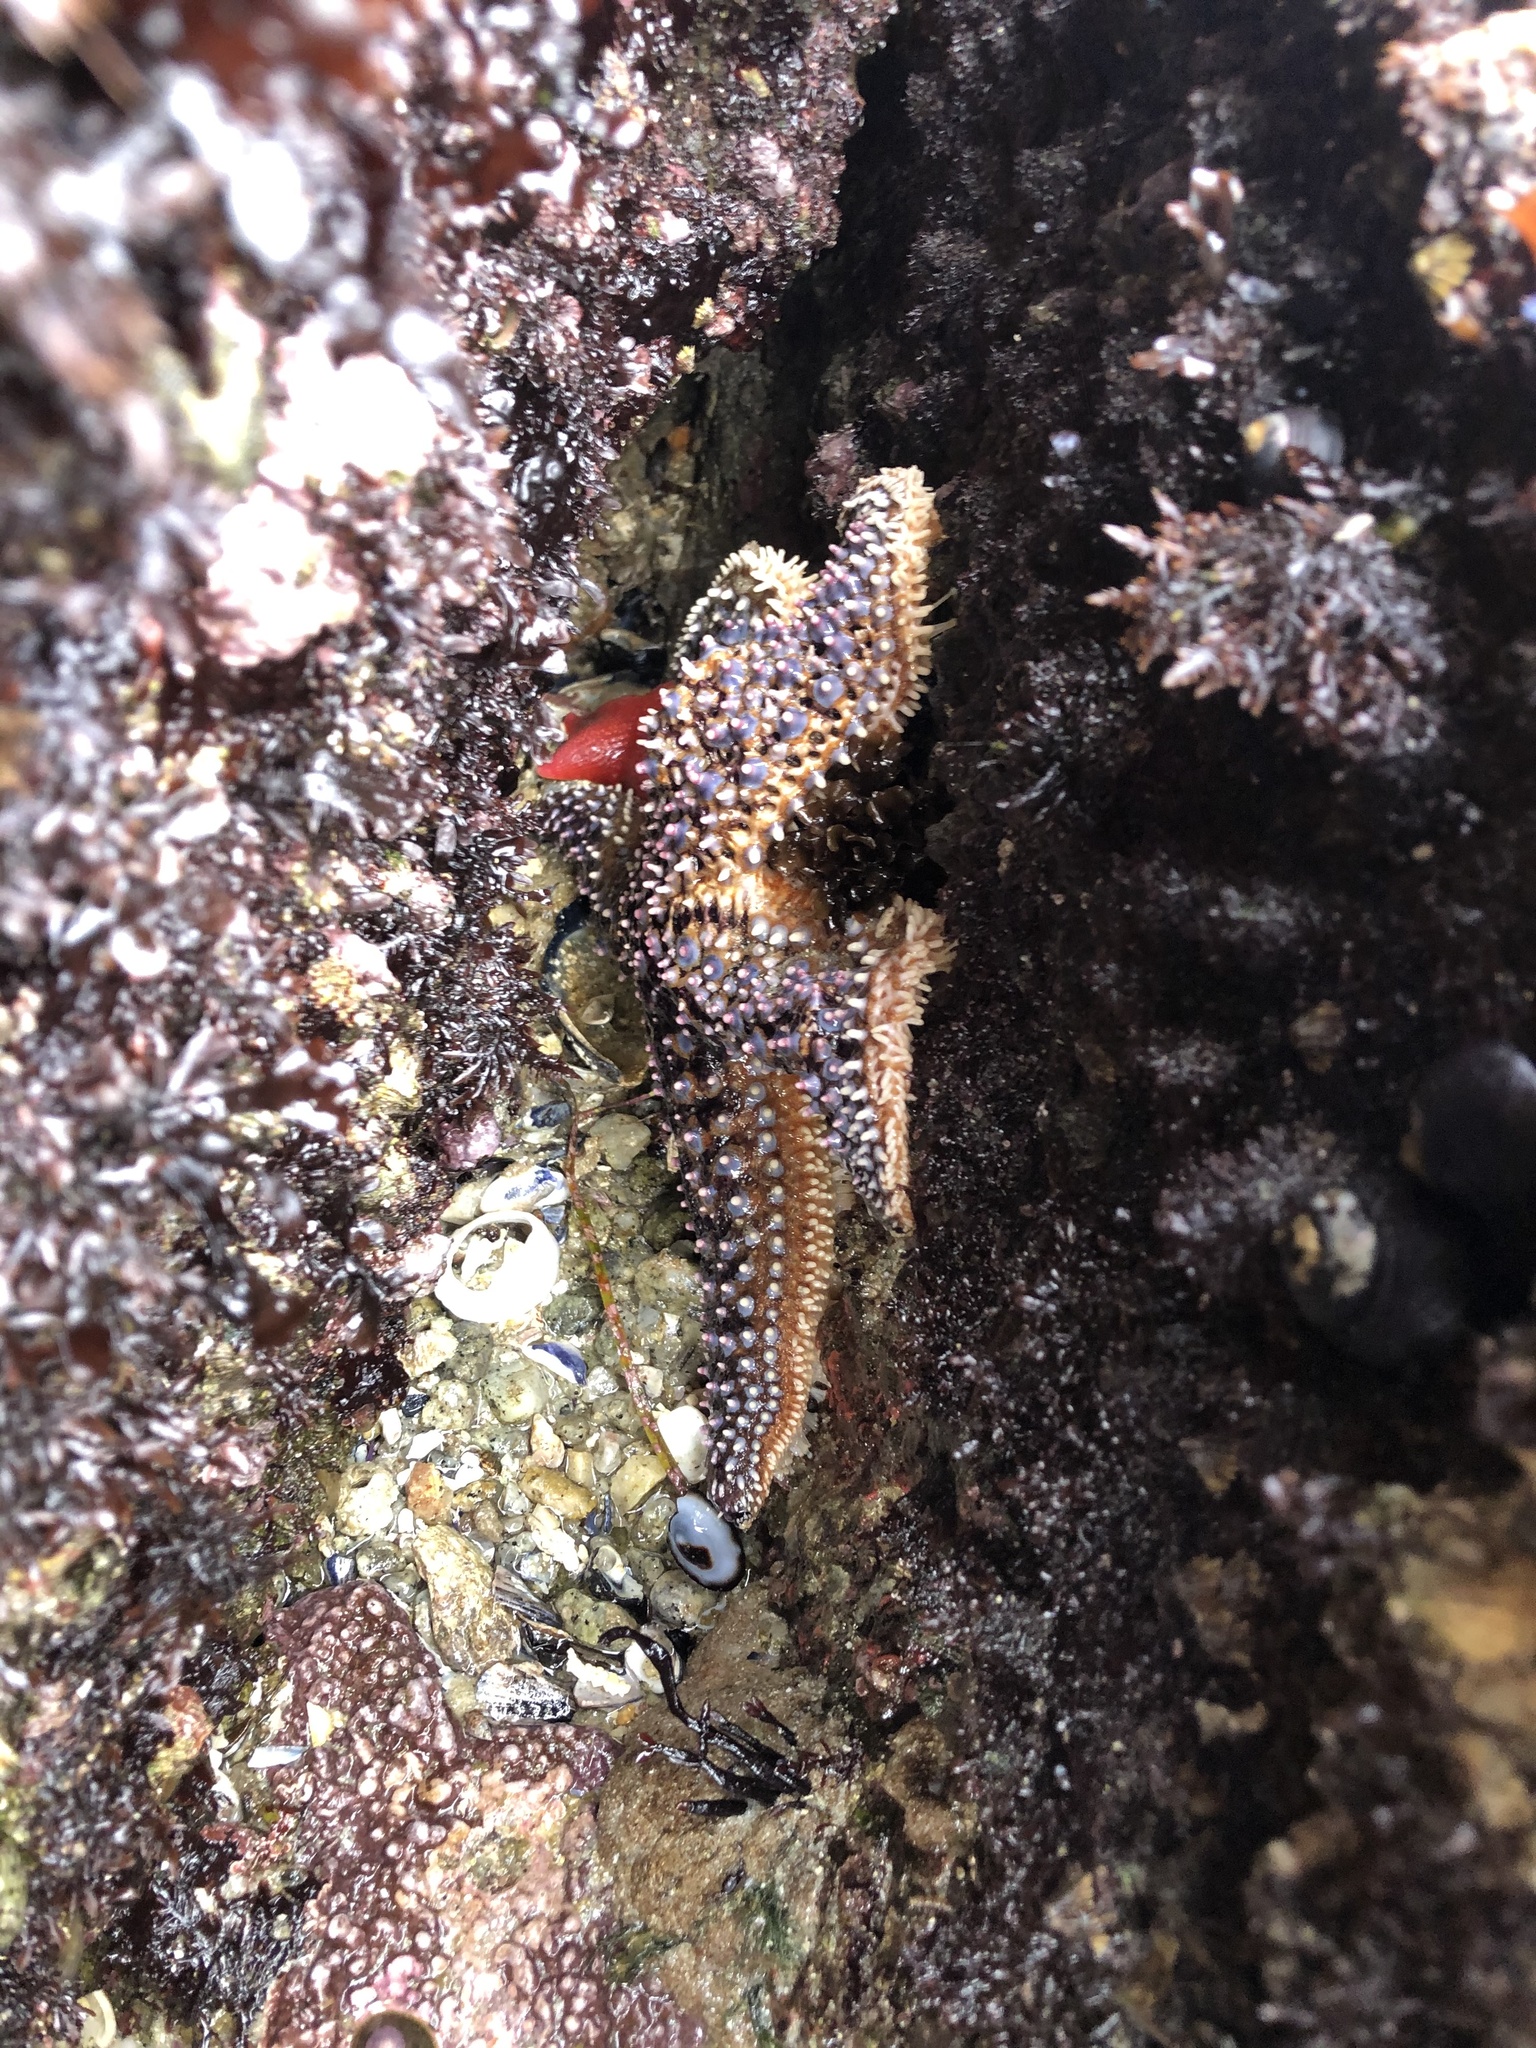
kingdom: Animalia
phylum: Echinodermata
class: Asteroidea
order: Forcipulatida
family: Asteriidae
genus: Pisaster
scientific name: Pisaster giganteus
